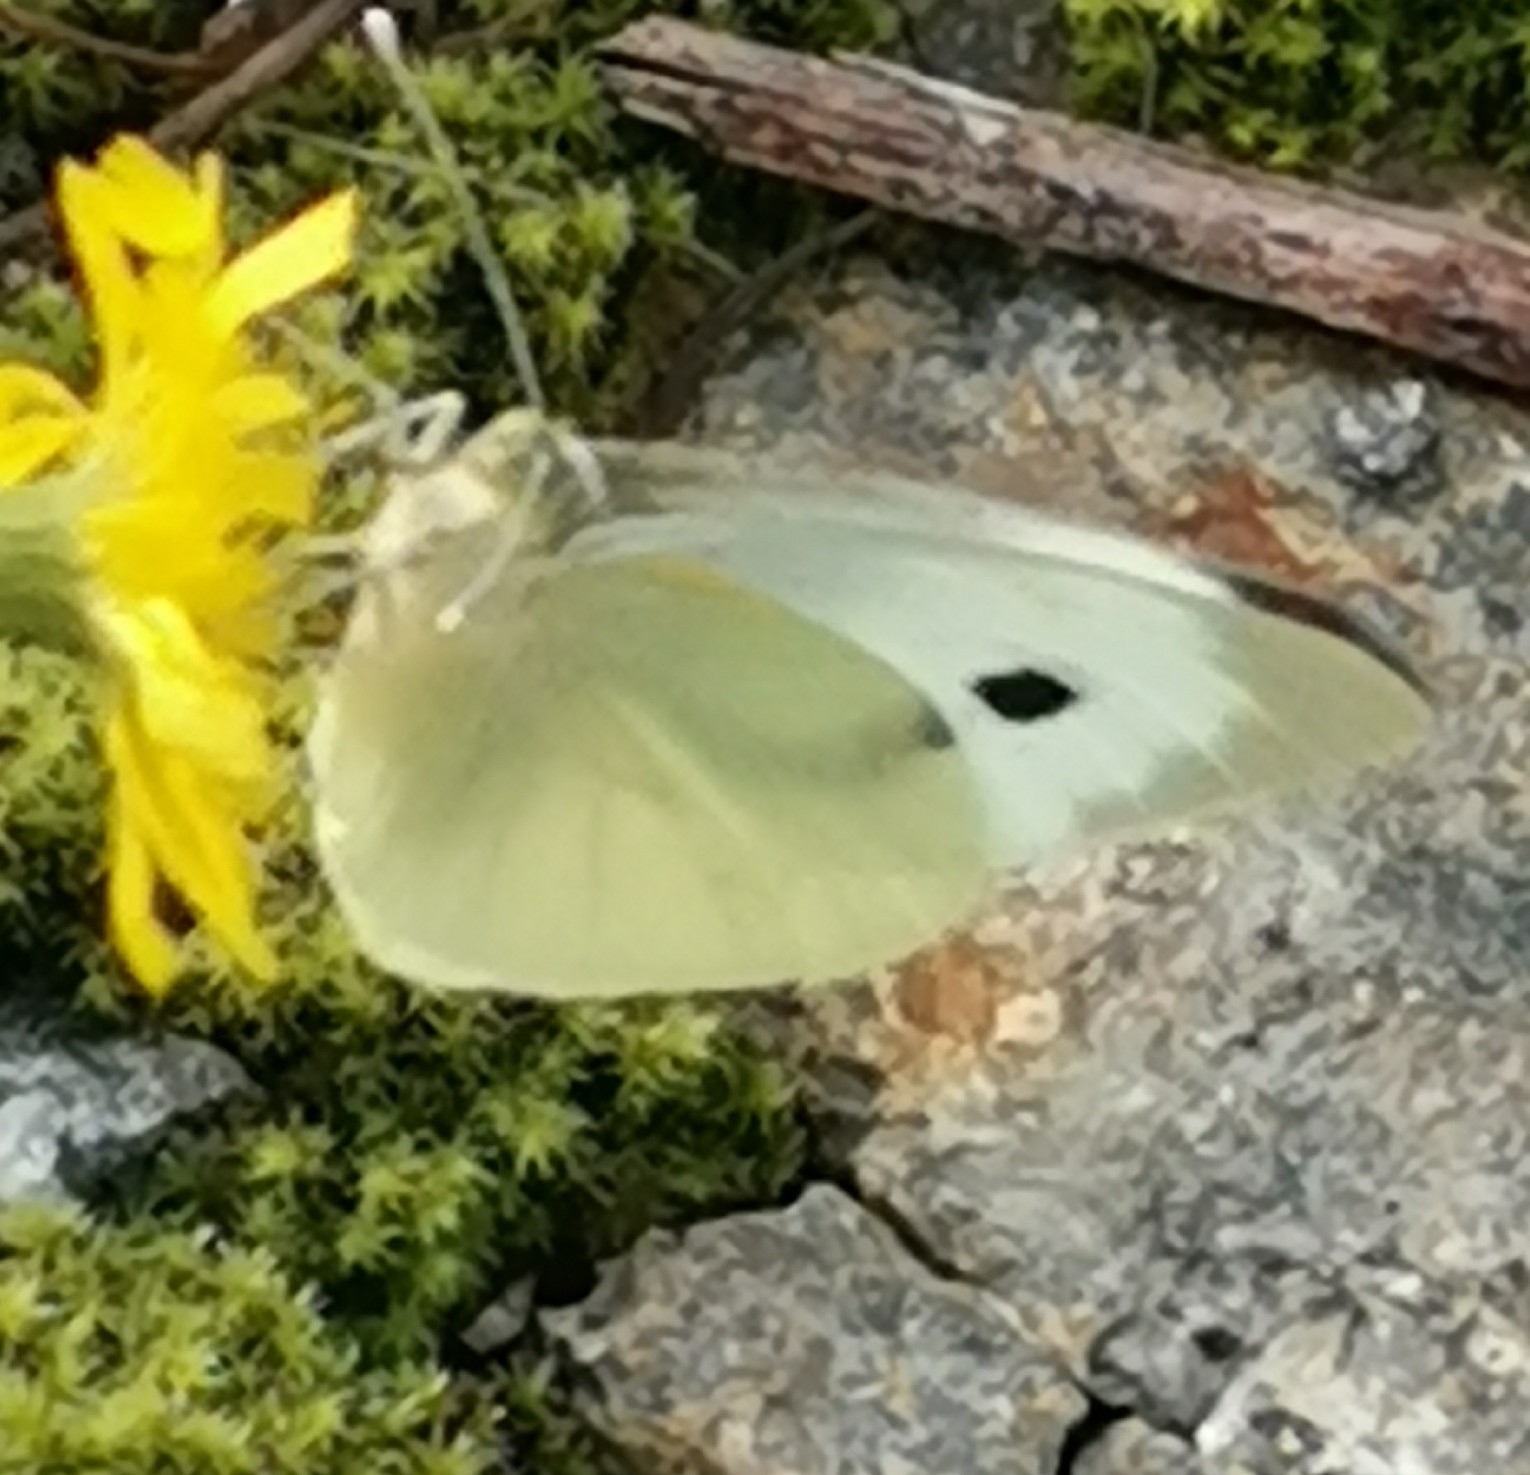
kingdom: Animalia
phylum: Arthropoda
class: Insecta
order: Lepidoptera
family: Pieridae
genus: Pieris
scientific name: Pieris brassicae
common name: Large white
